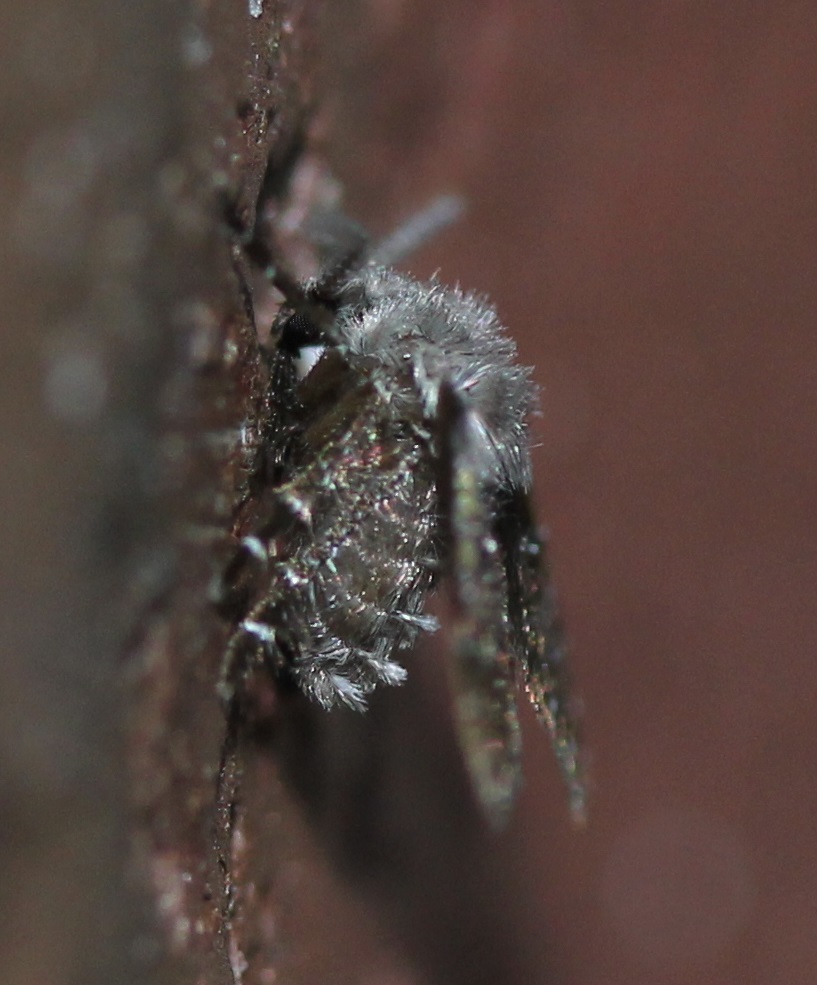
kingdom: Animalia
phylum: Arthropoda
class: Insecta
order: Diptera
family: Psychodidae
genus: Clogmia
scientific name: Clogmia albipunctatus
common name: White-spotted moth fly
